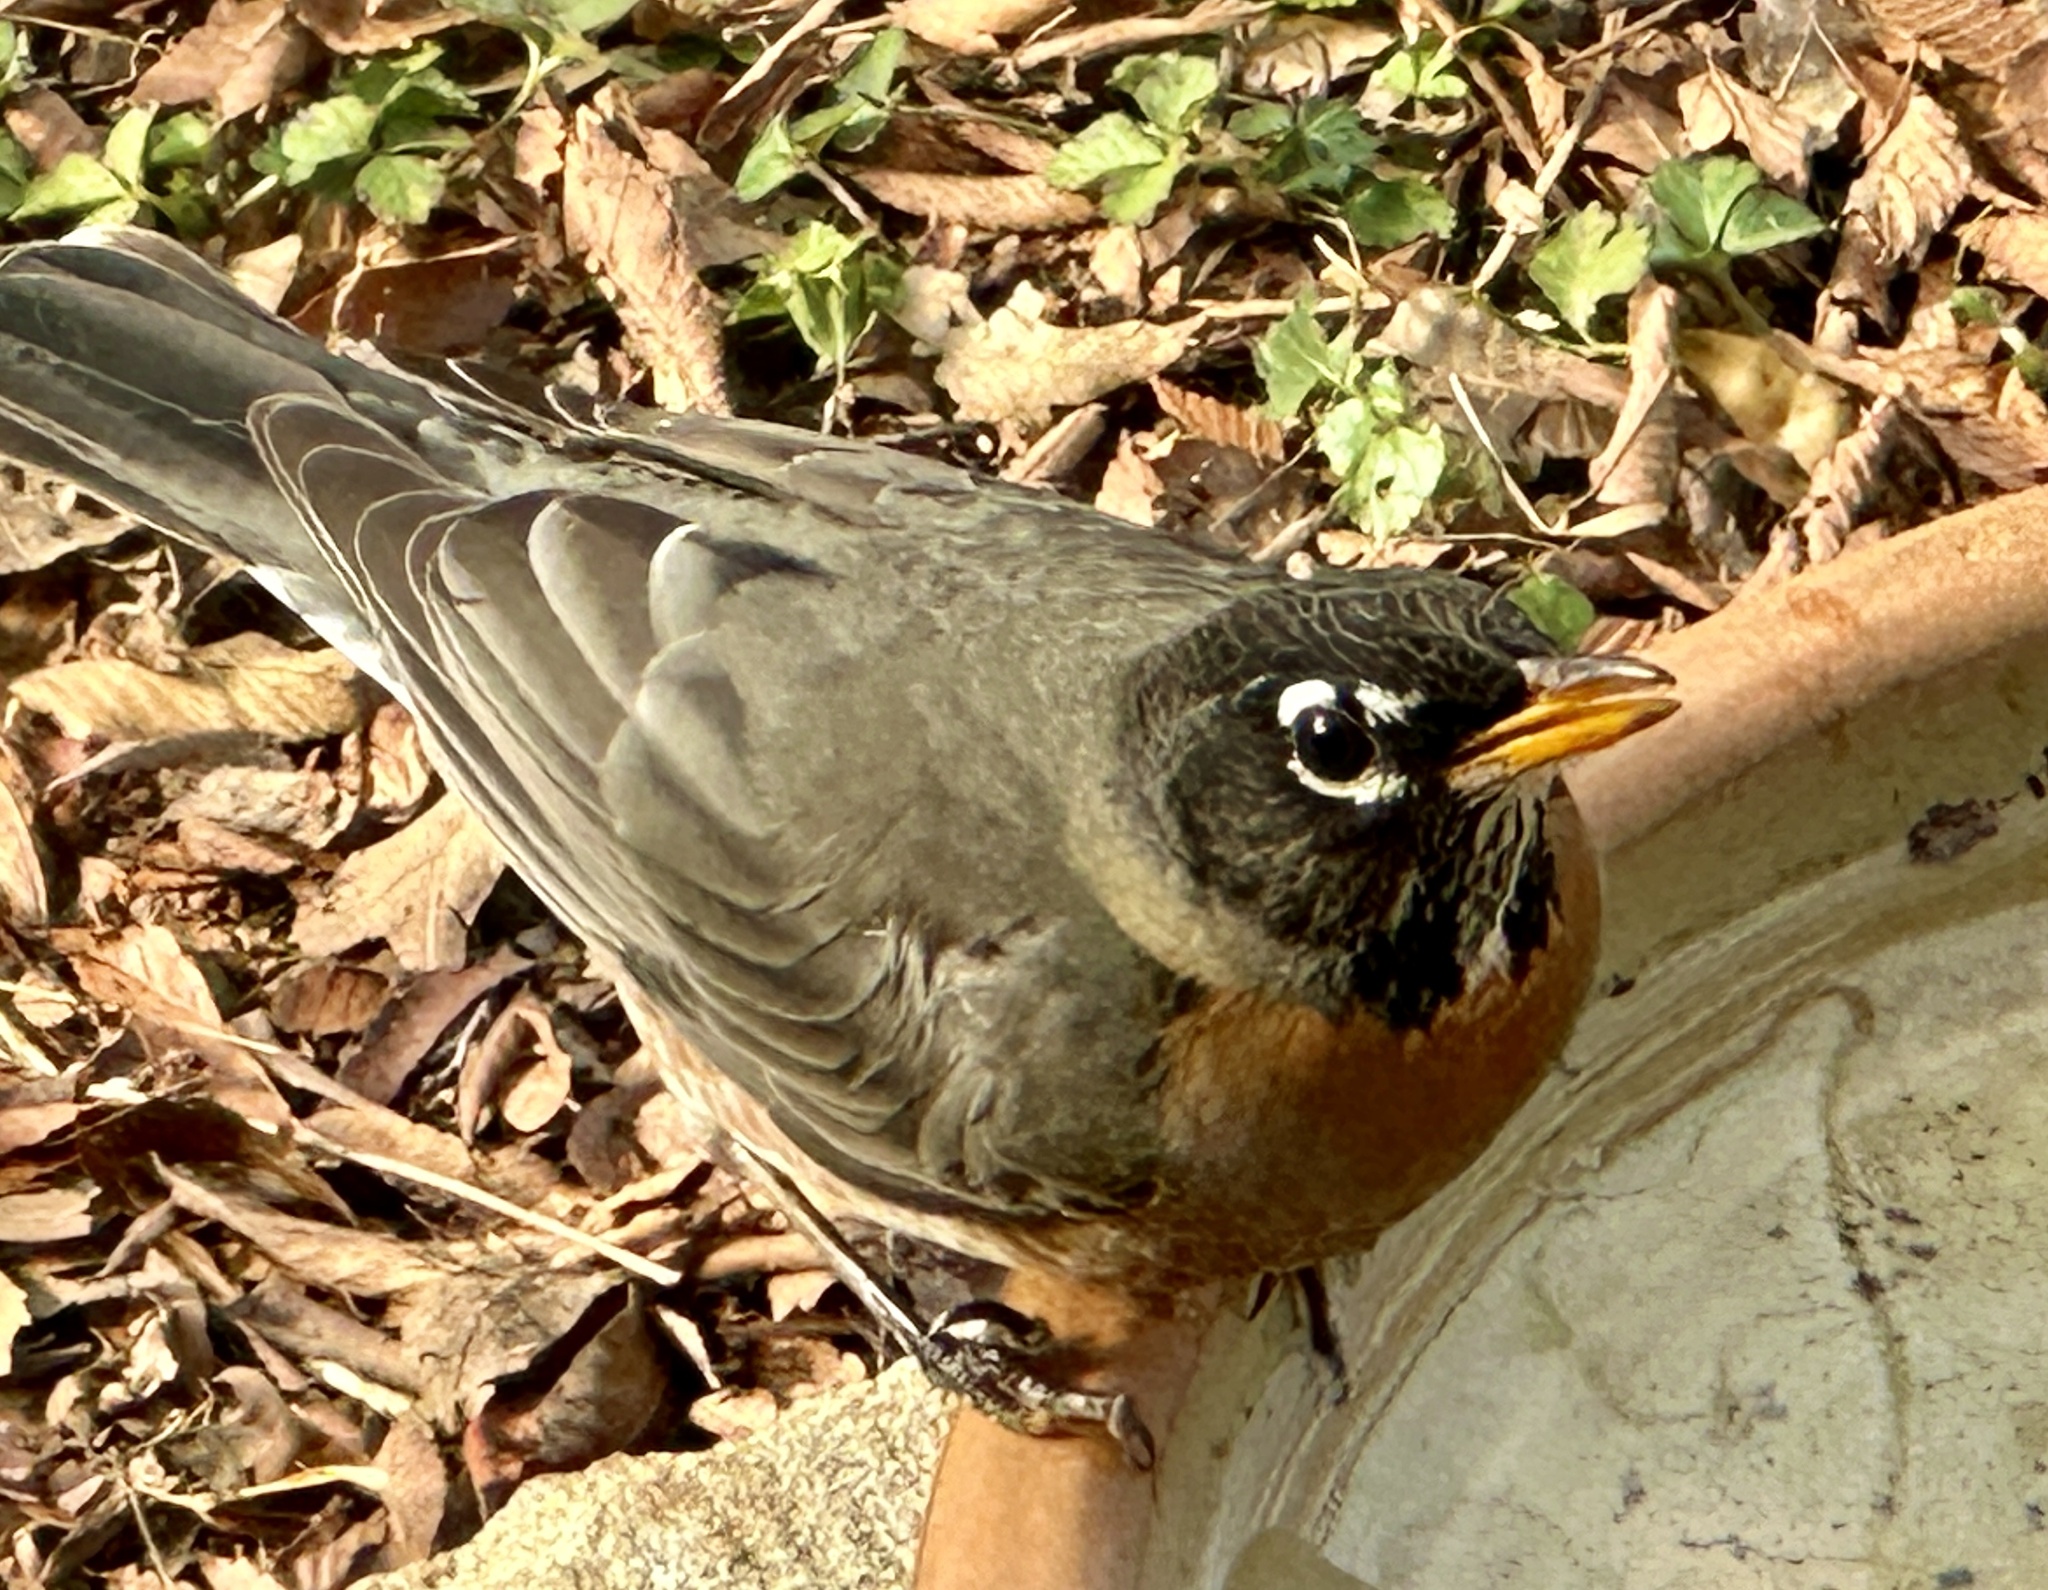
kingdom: Animalia
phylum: Chordata
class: Aves
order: Passeriformes
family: Turdidae
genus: Turdus
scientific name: Turdus migratorius
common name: American robin
